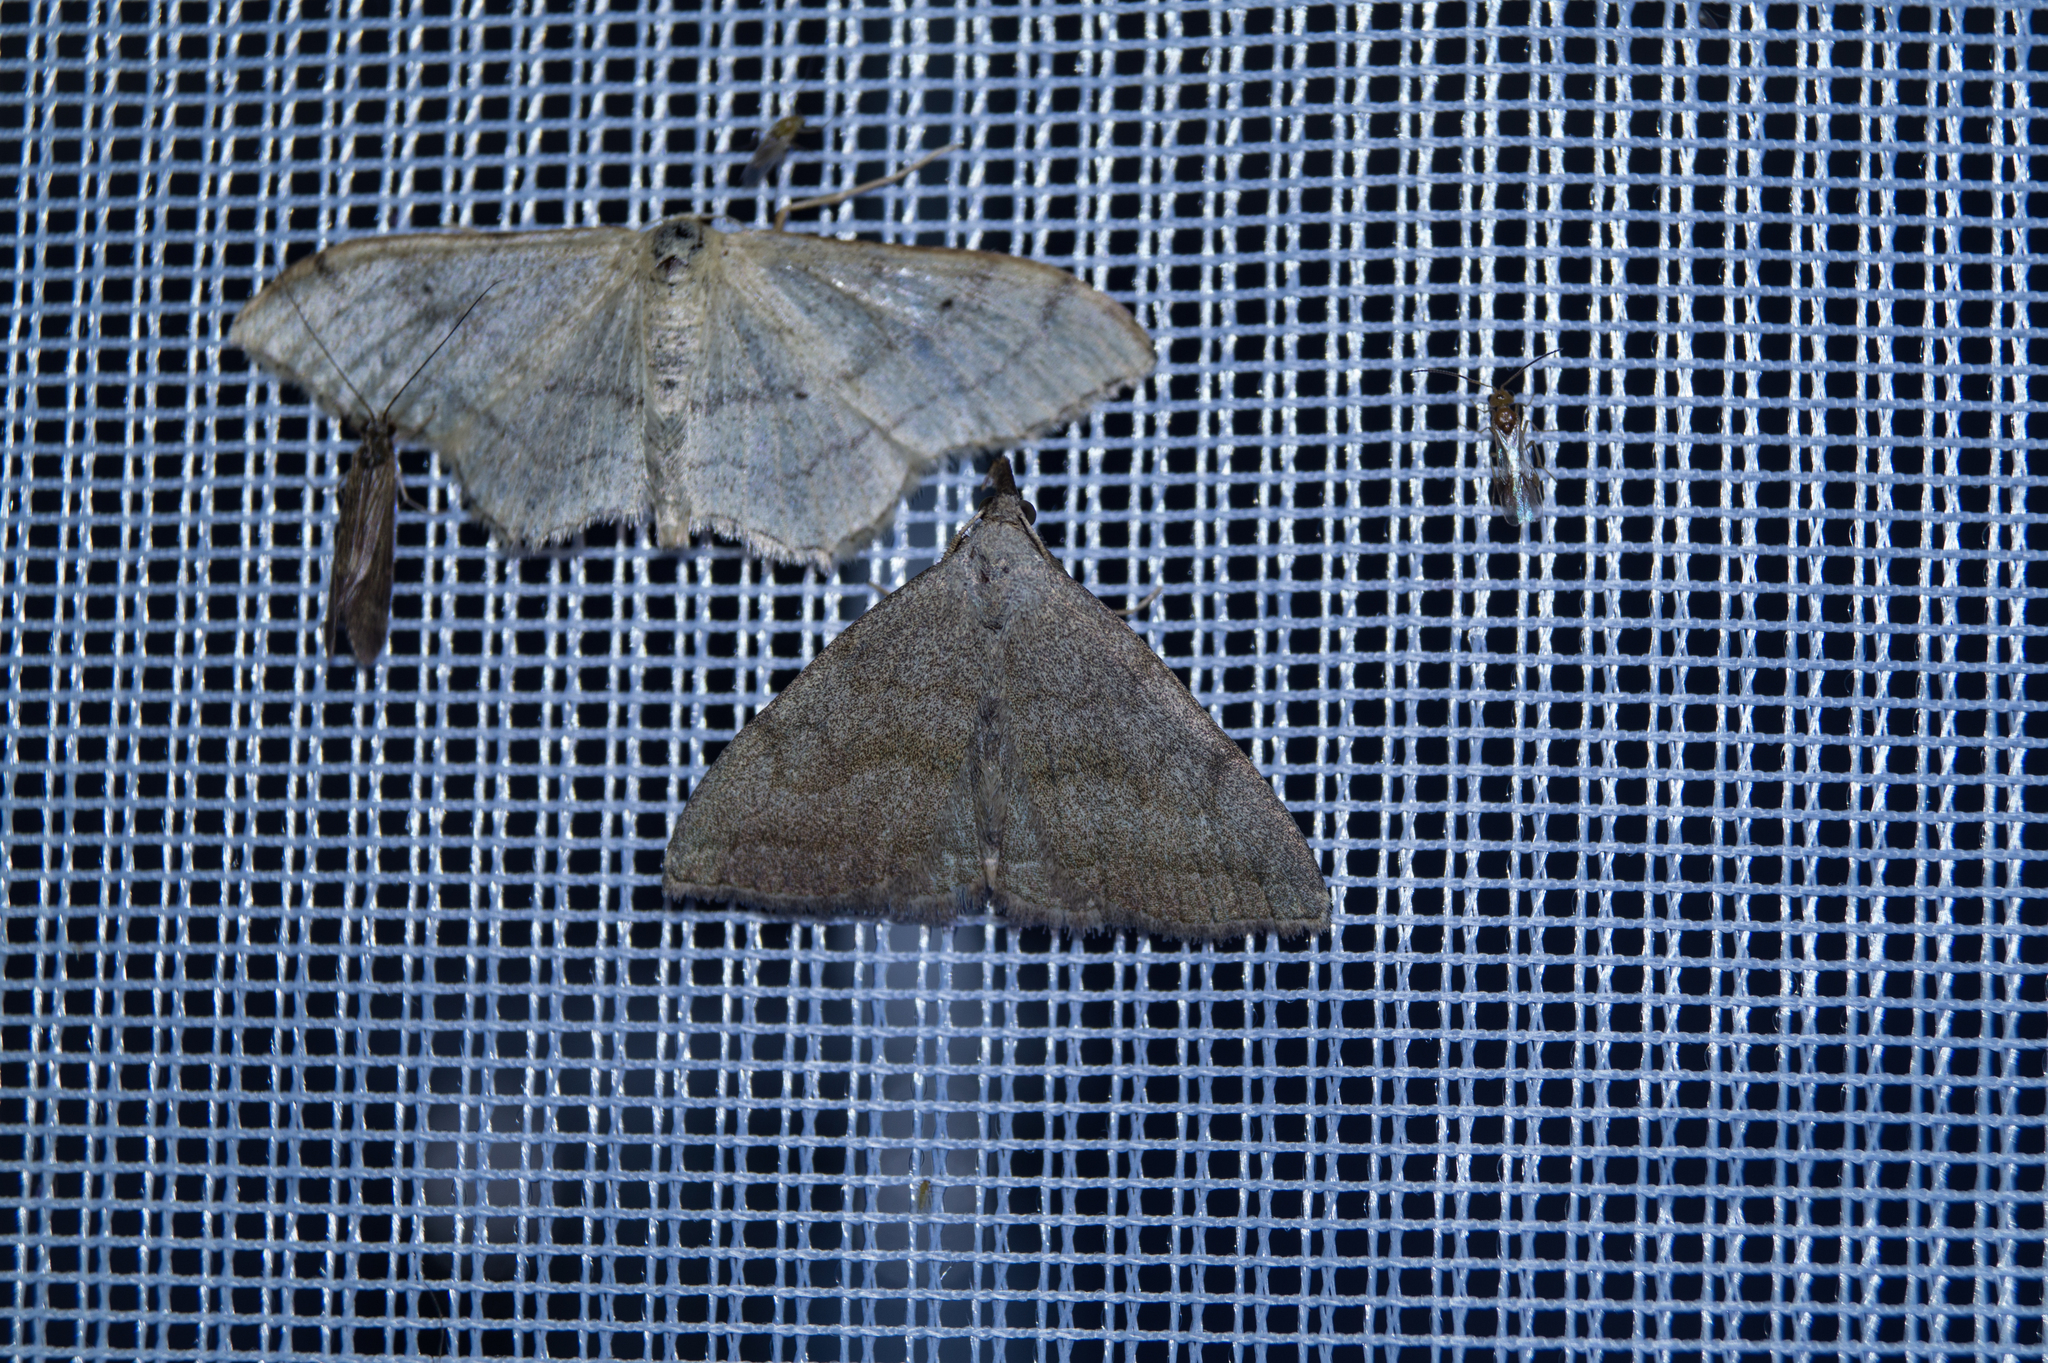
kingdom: Animalia
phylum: Arthropoda
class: Insecta
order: Lepidoptera
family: Erebidae
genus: Pechipogo
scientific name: Pechipogo strigilata
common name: Common fan-foot
